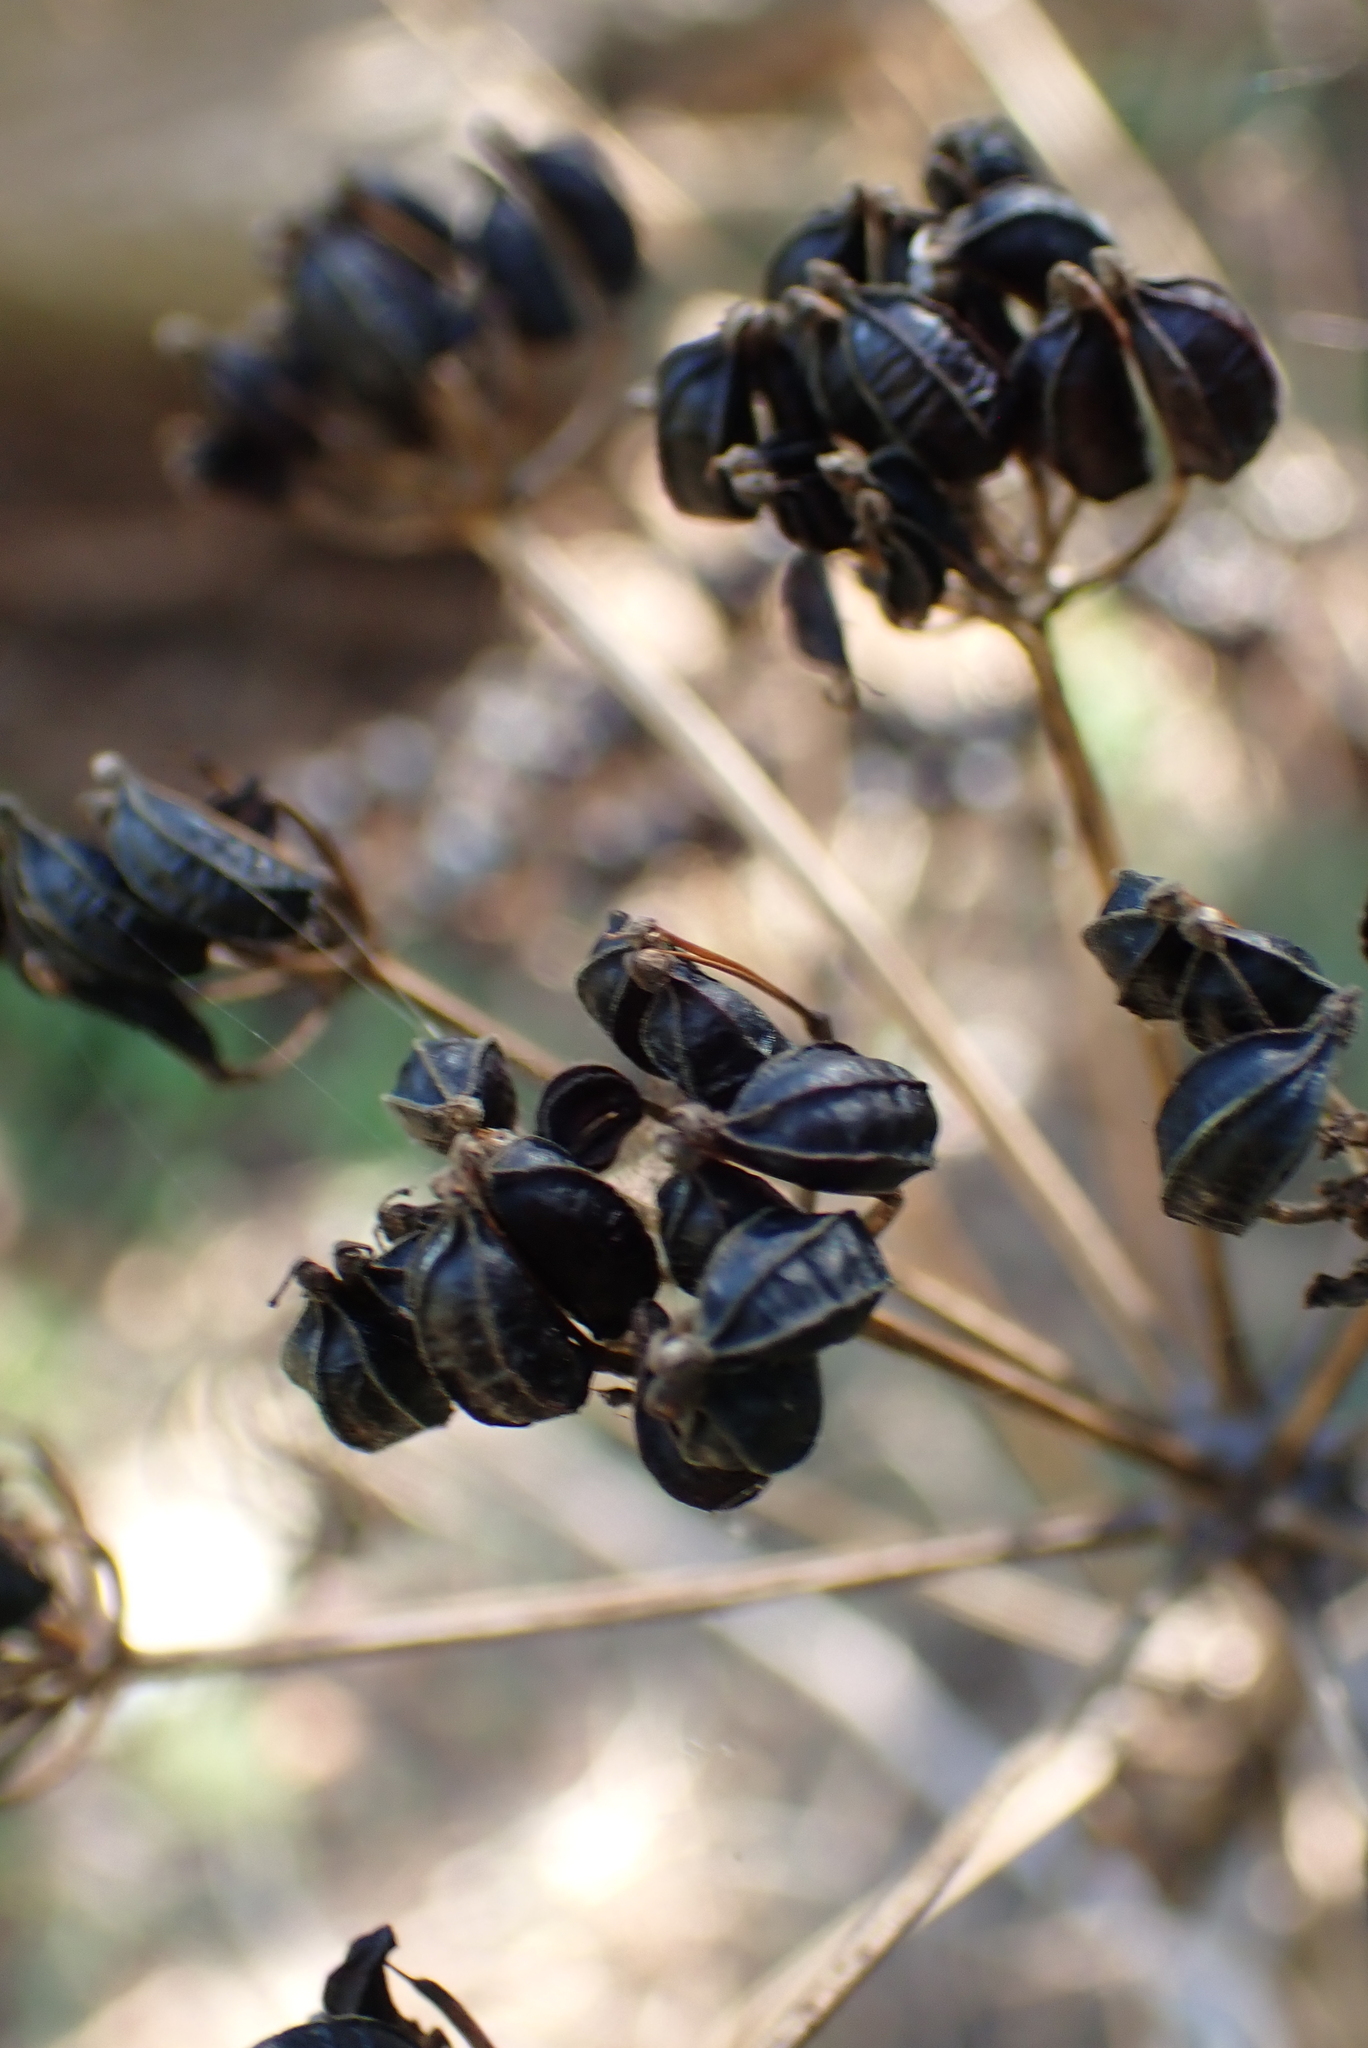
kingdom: Plantae
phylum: Tracheophyta
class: Magnoliopsida
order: Apiales
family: Apiaceae
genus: Smyrnium
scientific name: Smyrnium olusatrum
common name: Alexanders
